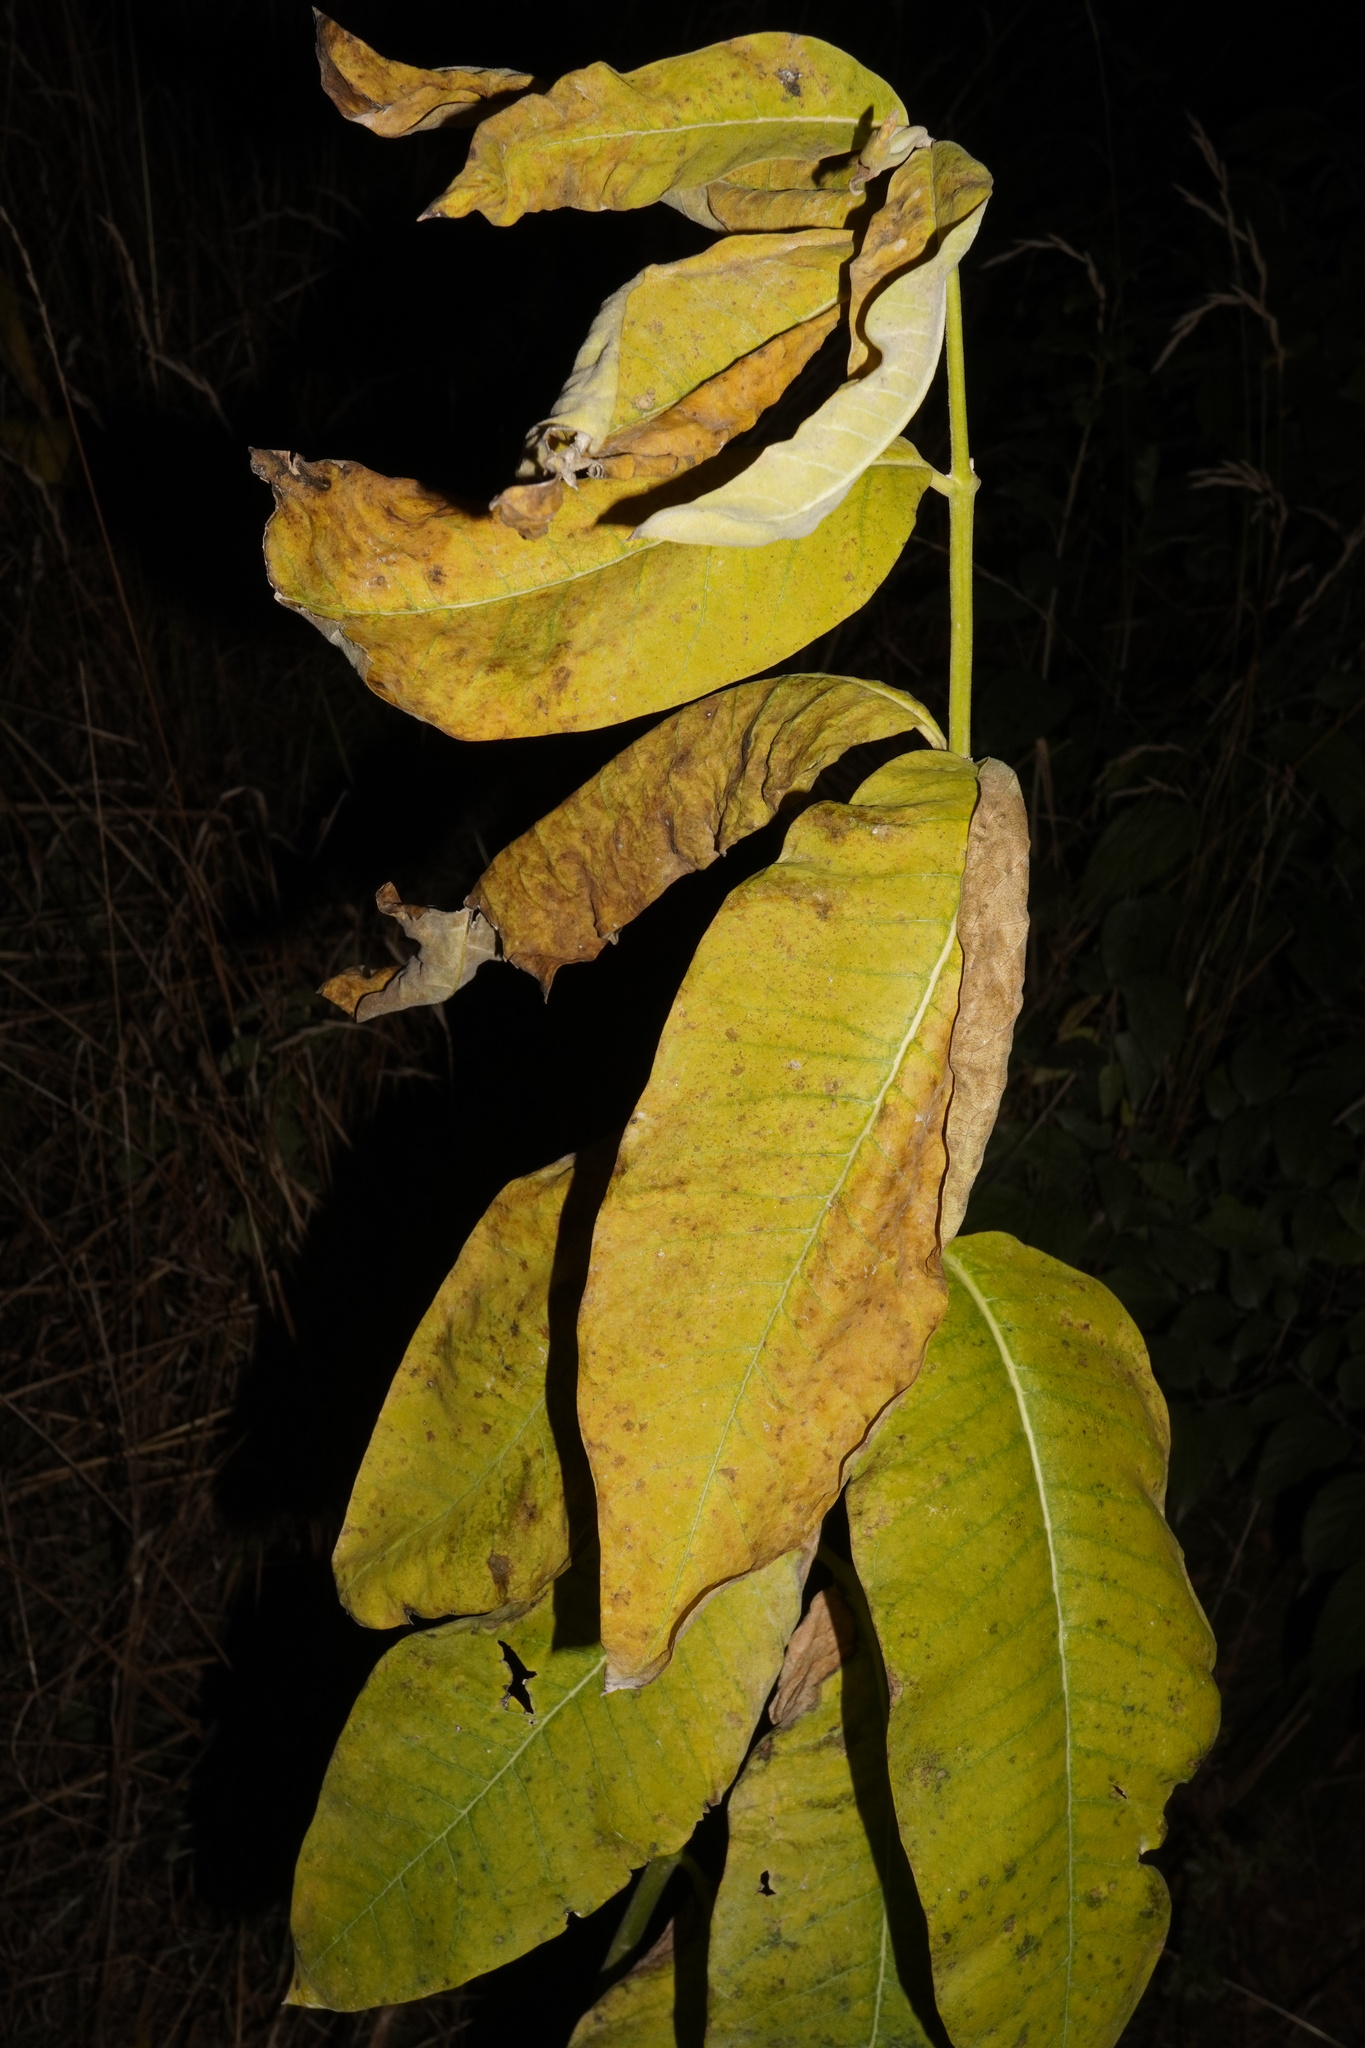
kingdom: Plantae
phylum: Tracheophyta
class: Magnoliopsida
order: Gentianales
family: Apocynaceae
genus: Asclepias
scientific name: Asclepias syriaca
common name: Common milkweed
